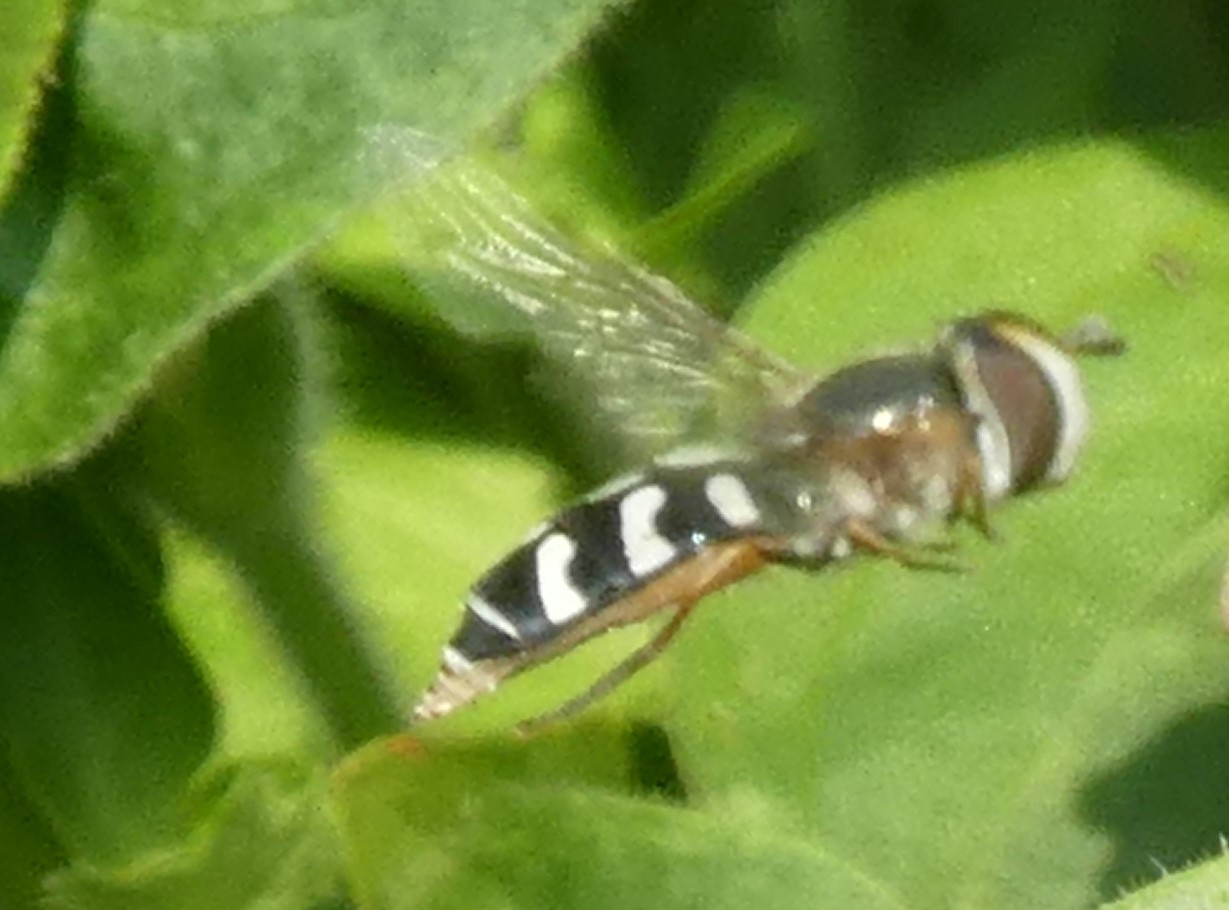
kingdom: Animalia
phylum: Arthropoda
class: Insecta
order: Diptera
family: Syrphidae
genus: Scaeva
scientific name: Scaeva pyrastri
